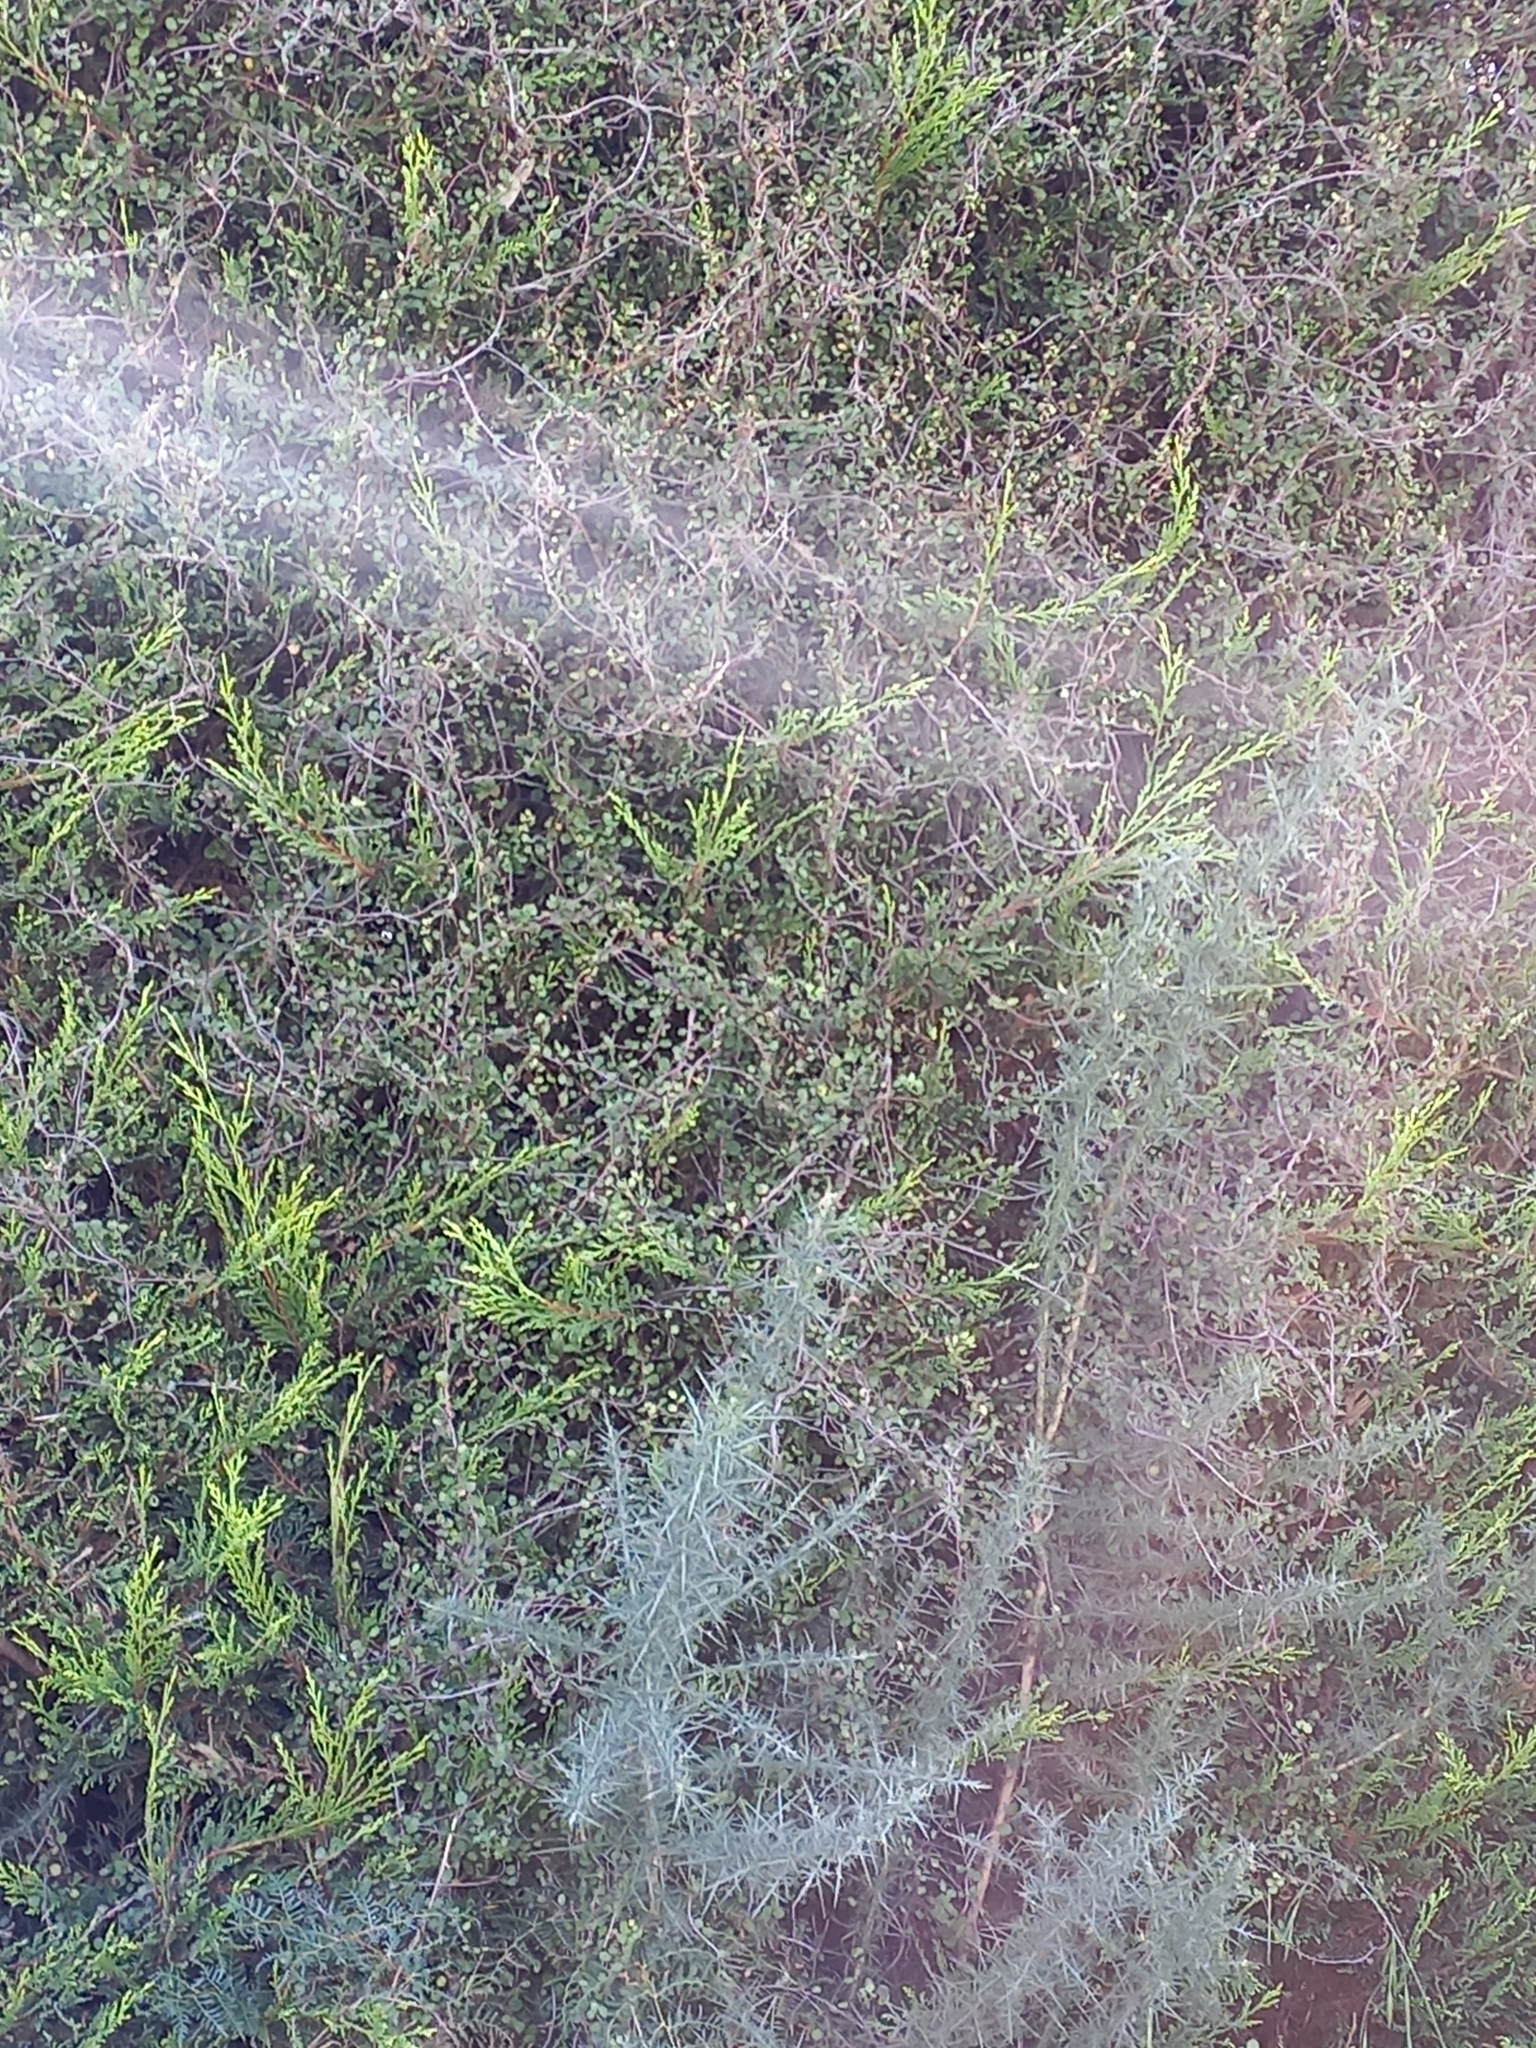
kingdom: Plantae
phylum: Tracheophyta
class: Magnoliopsida
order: Caryophyllales
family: Polygonaceae
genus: Muehlenbeckia
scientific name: Muehlenbeckia complexa
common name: Wireplant
